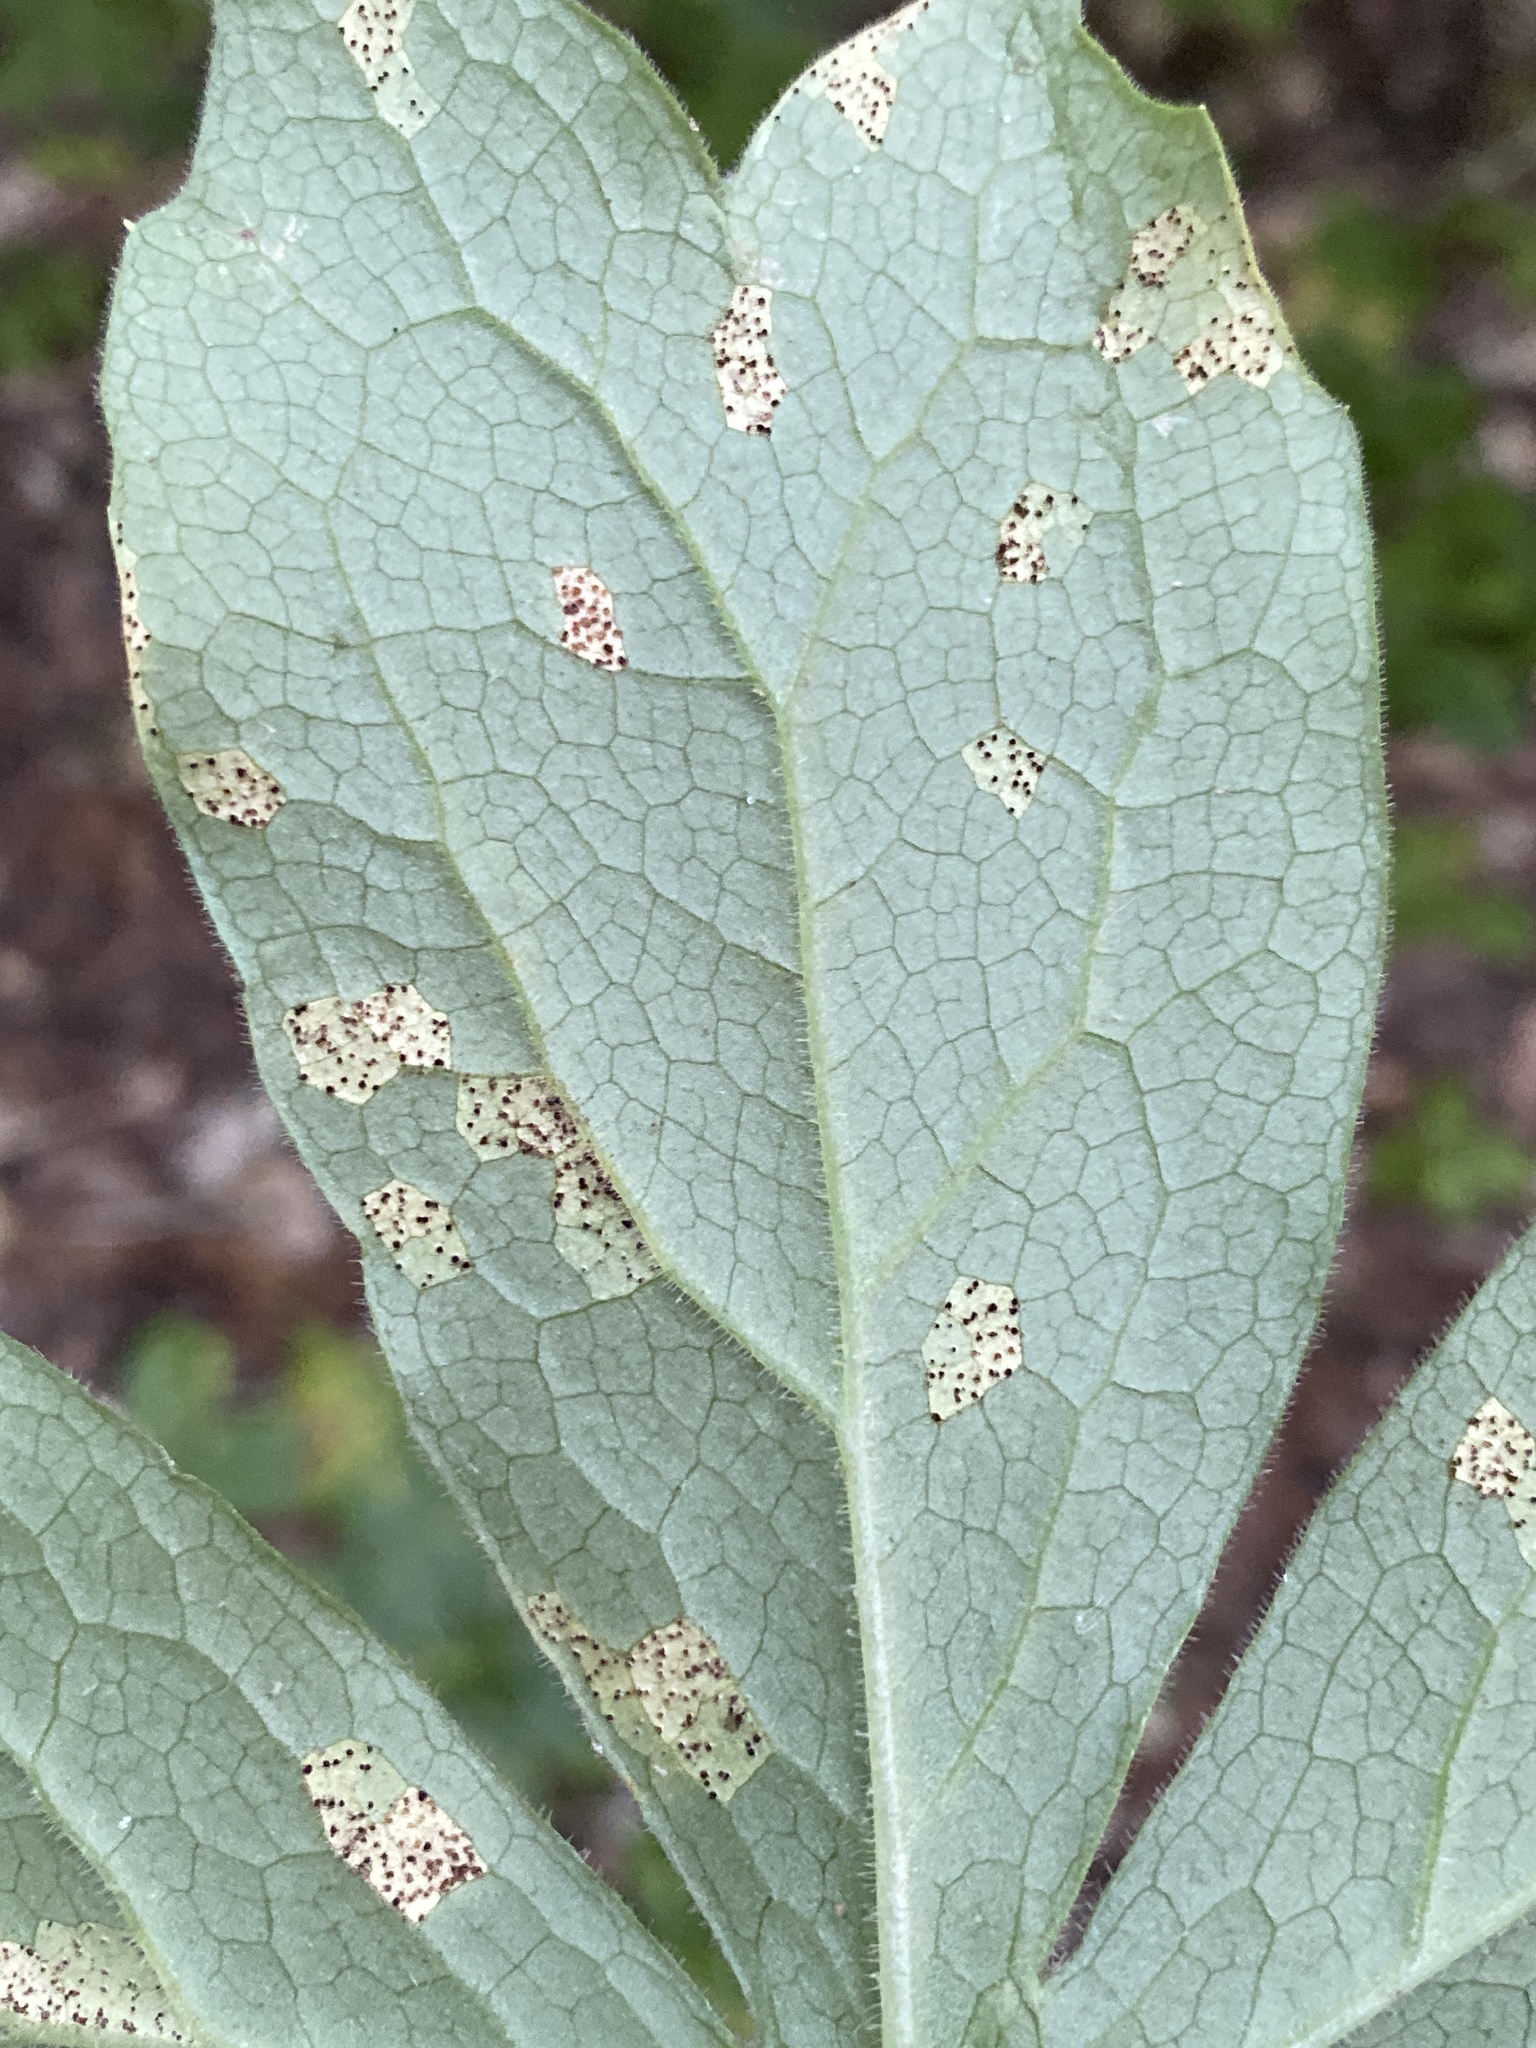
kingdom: Fungi
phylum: Basidiomycota
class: Pucciniomycetes
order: Pucciniales
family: Pucciniaceae
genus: Puccinia
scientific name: Puccinia podophylli
